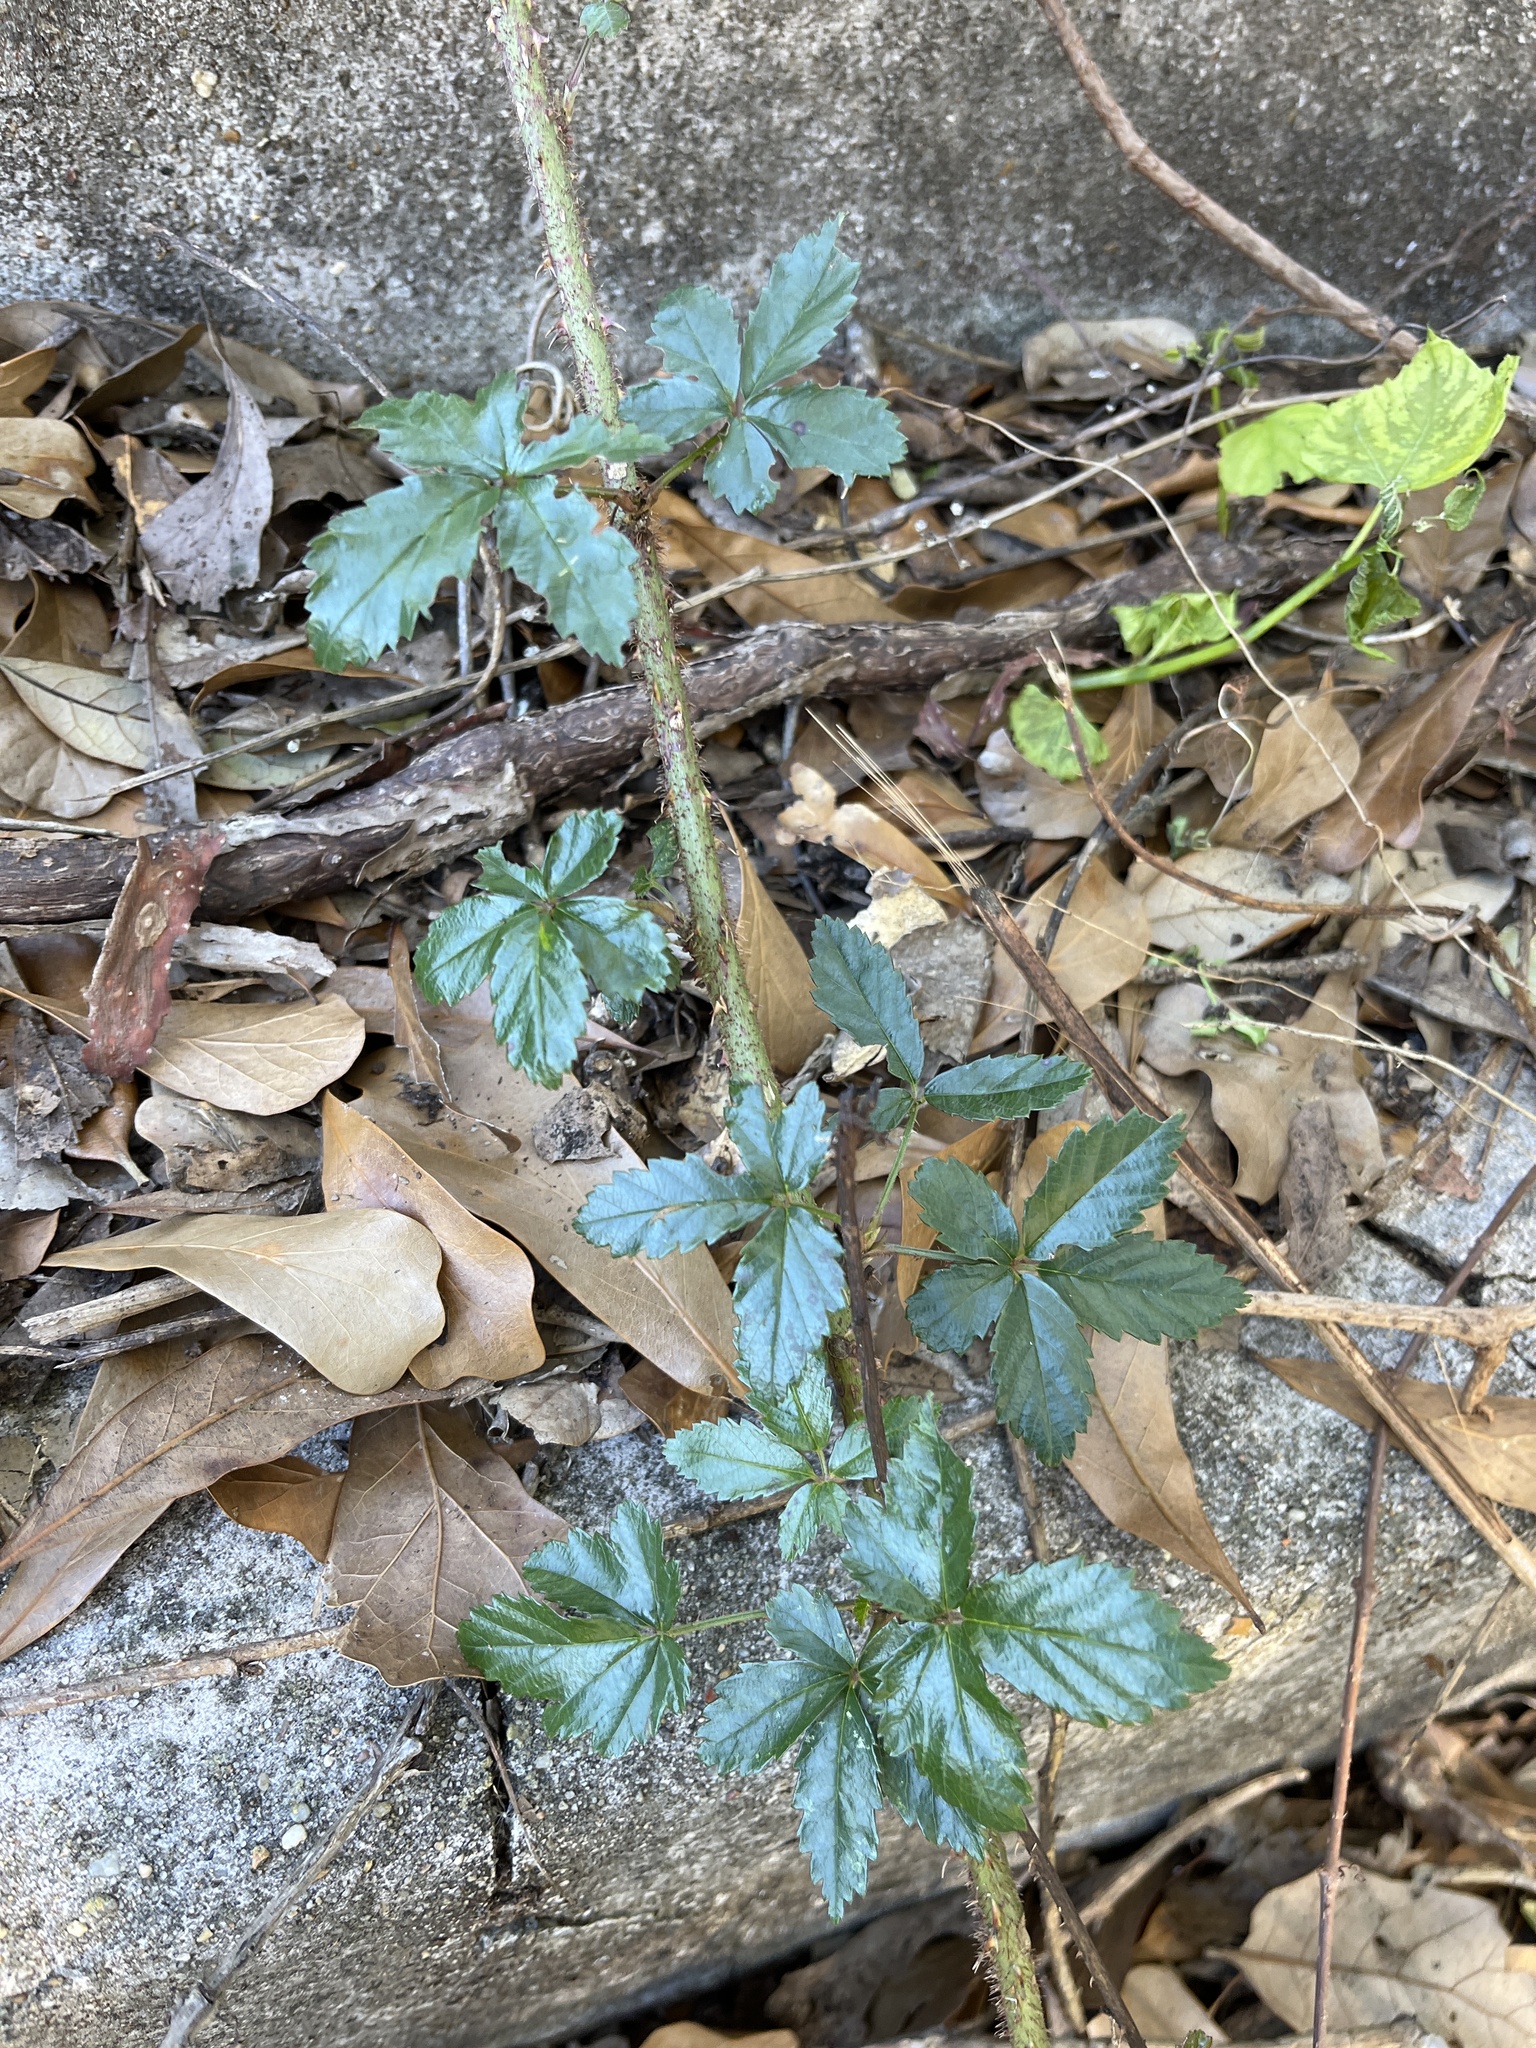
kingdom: Plantae
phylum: Tracheophyta
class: Magnoliopsida
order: Rosales
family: Rosaceae
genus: Rubus
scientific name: Rubus trivialis
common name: Southern dewberry
